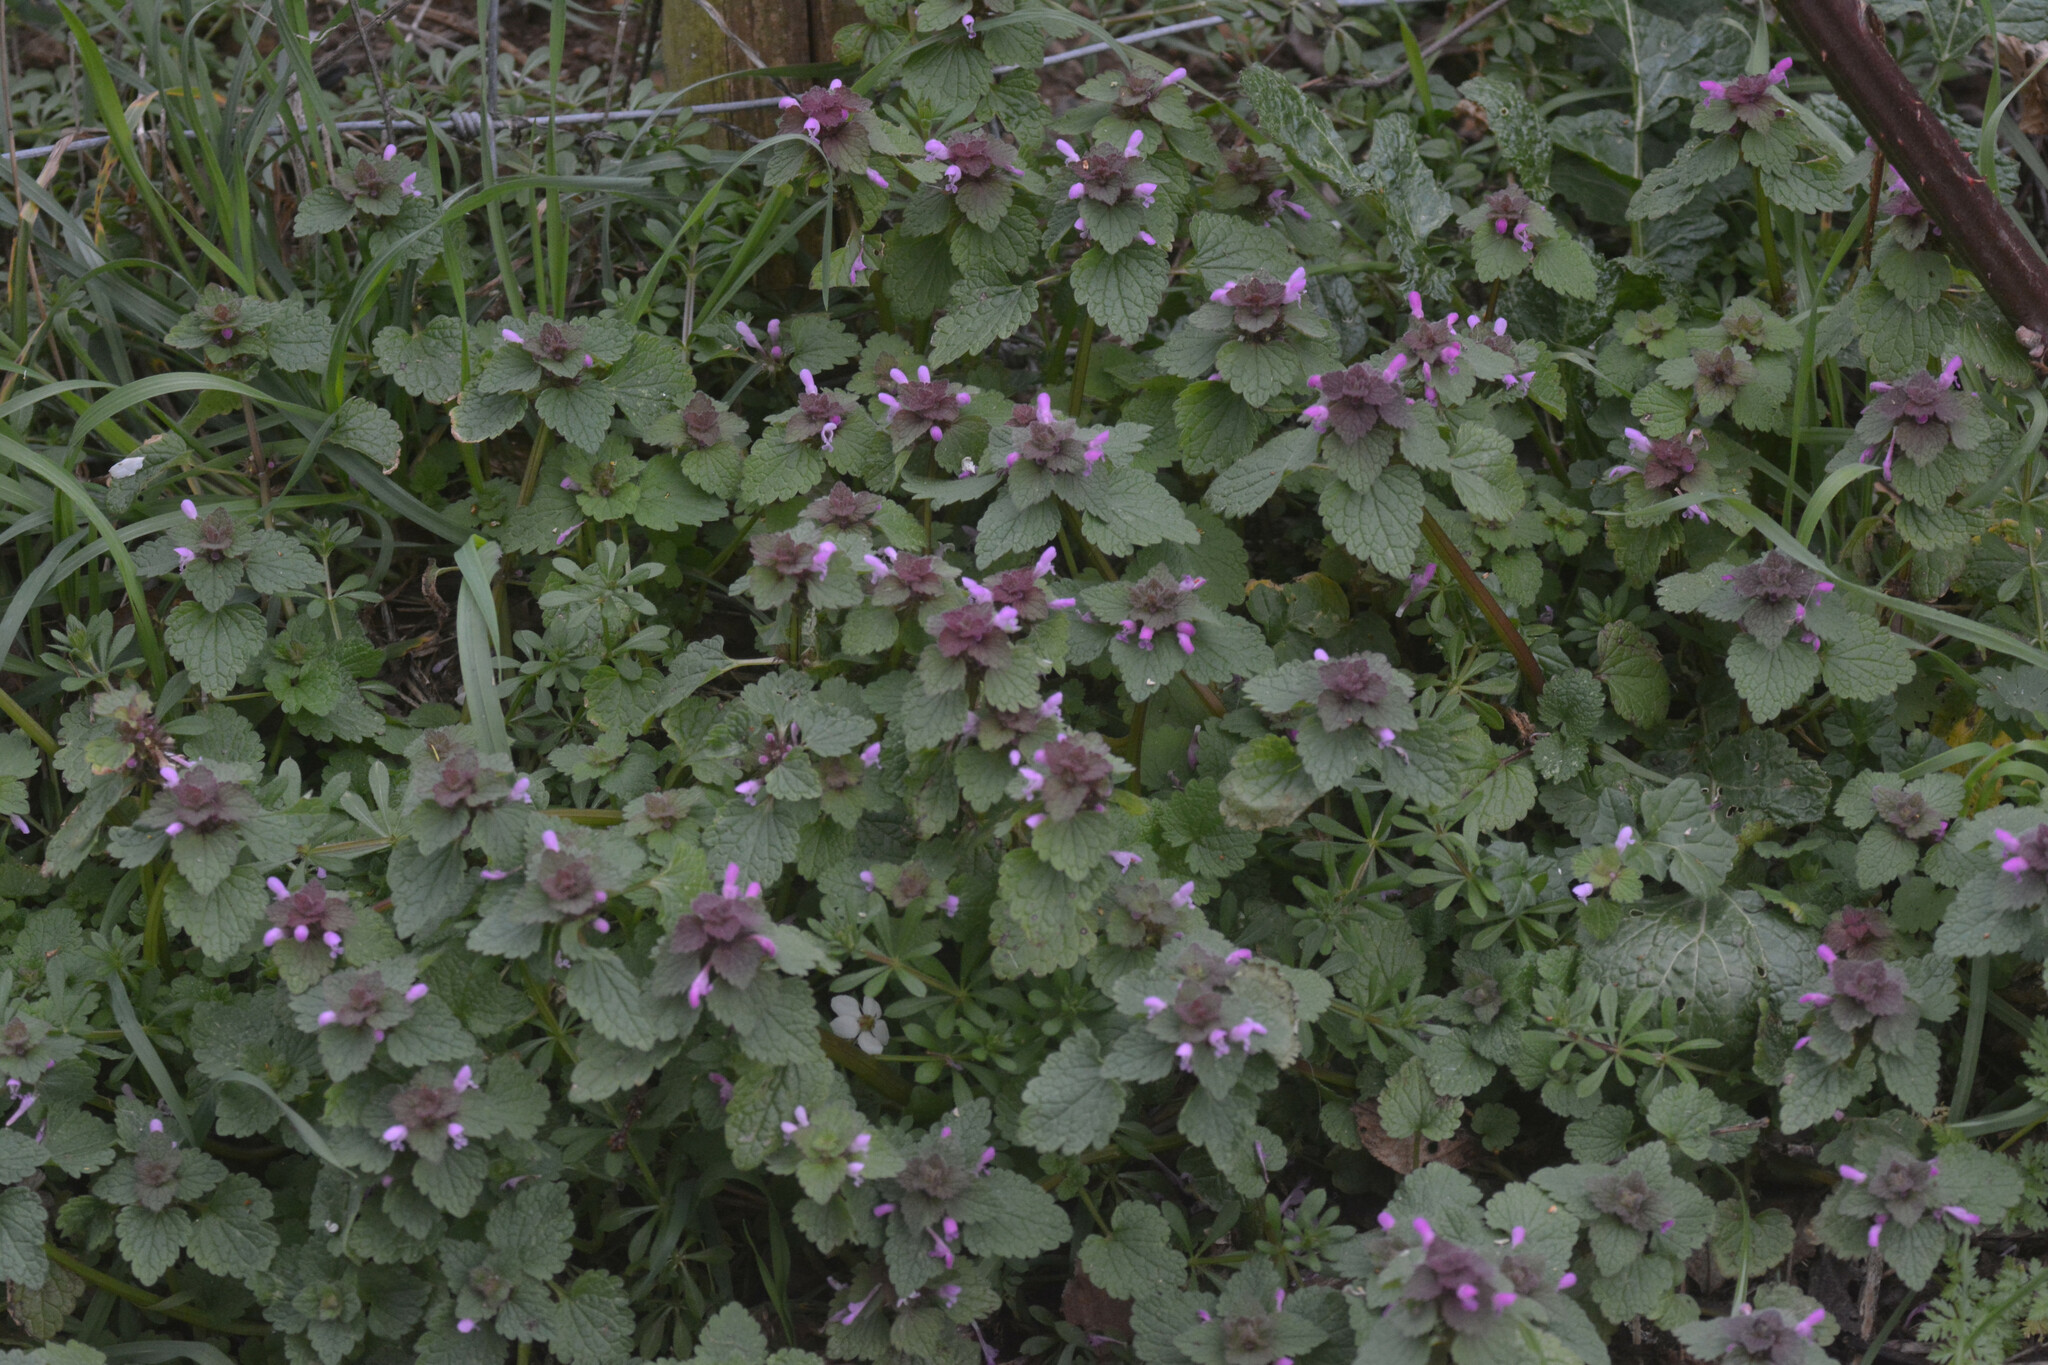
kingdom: Plantae
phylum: Tracheophyta
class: Magnoliopsida
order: Lamiales
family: Lamiaceae
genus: Lamium
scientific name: Lamium purpureum
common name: Red dead-nettle
